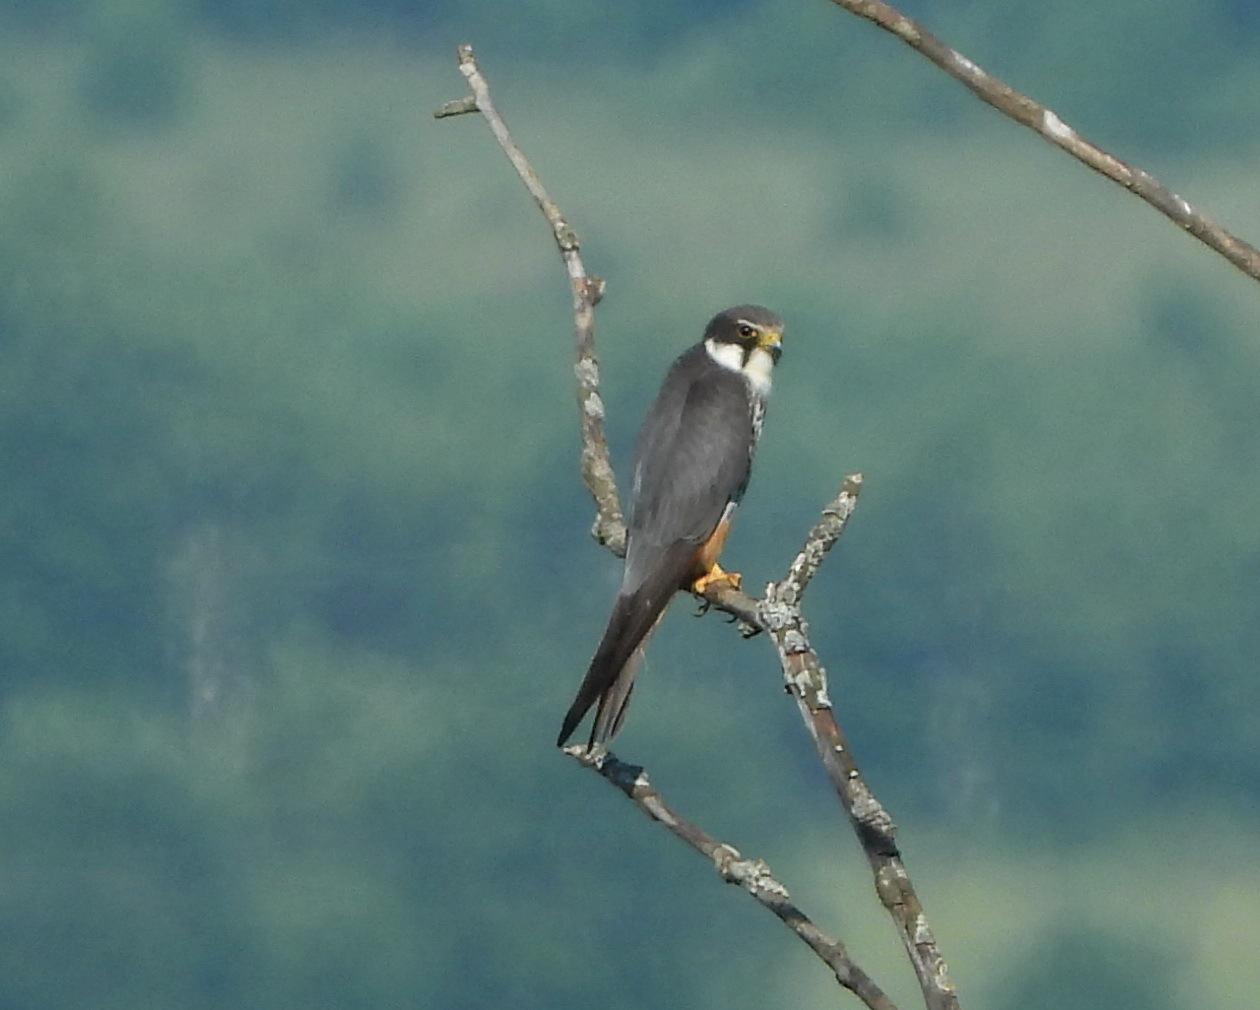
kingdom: Animalia
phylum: Chordata
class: Aves
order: Falconiformes
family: Falconidae
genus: Falco
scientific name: Falco subbuteo
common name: Eurasian hobby
